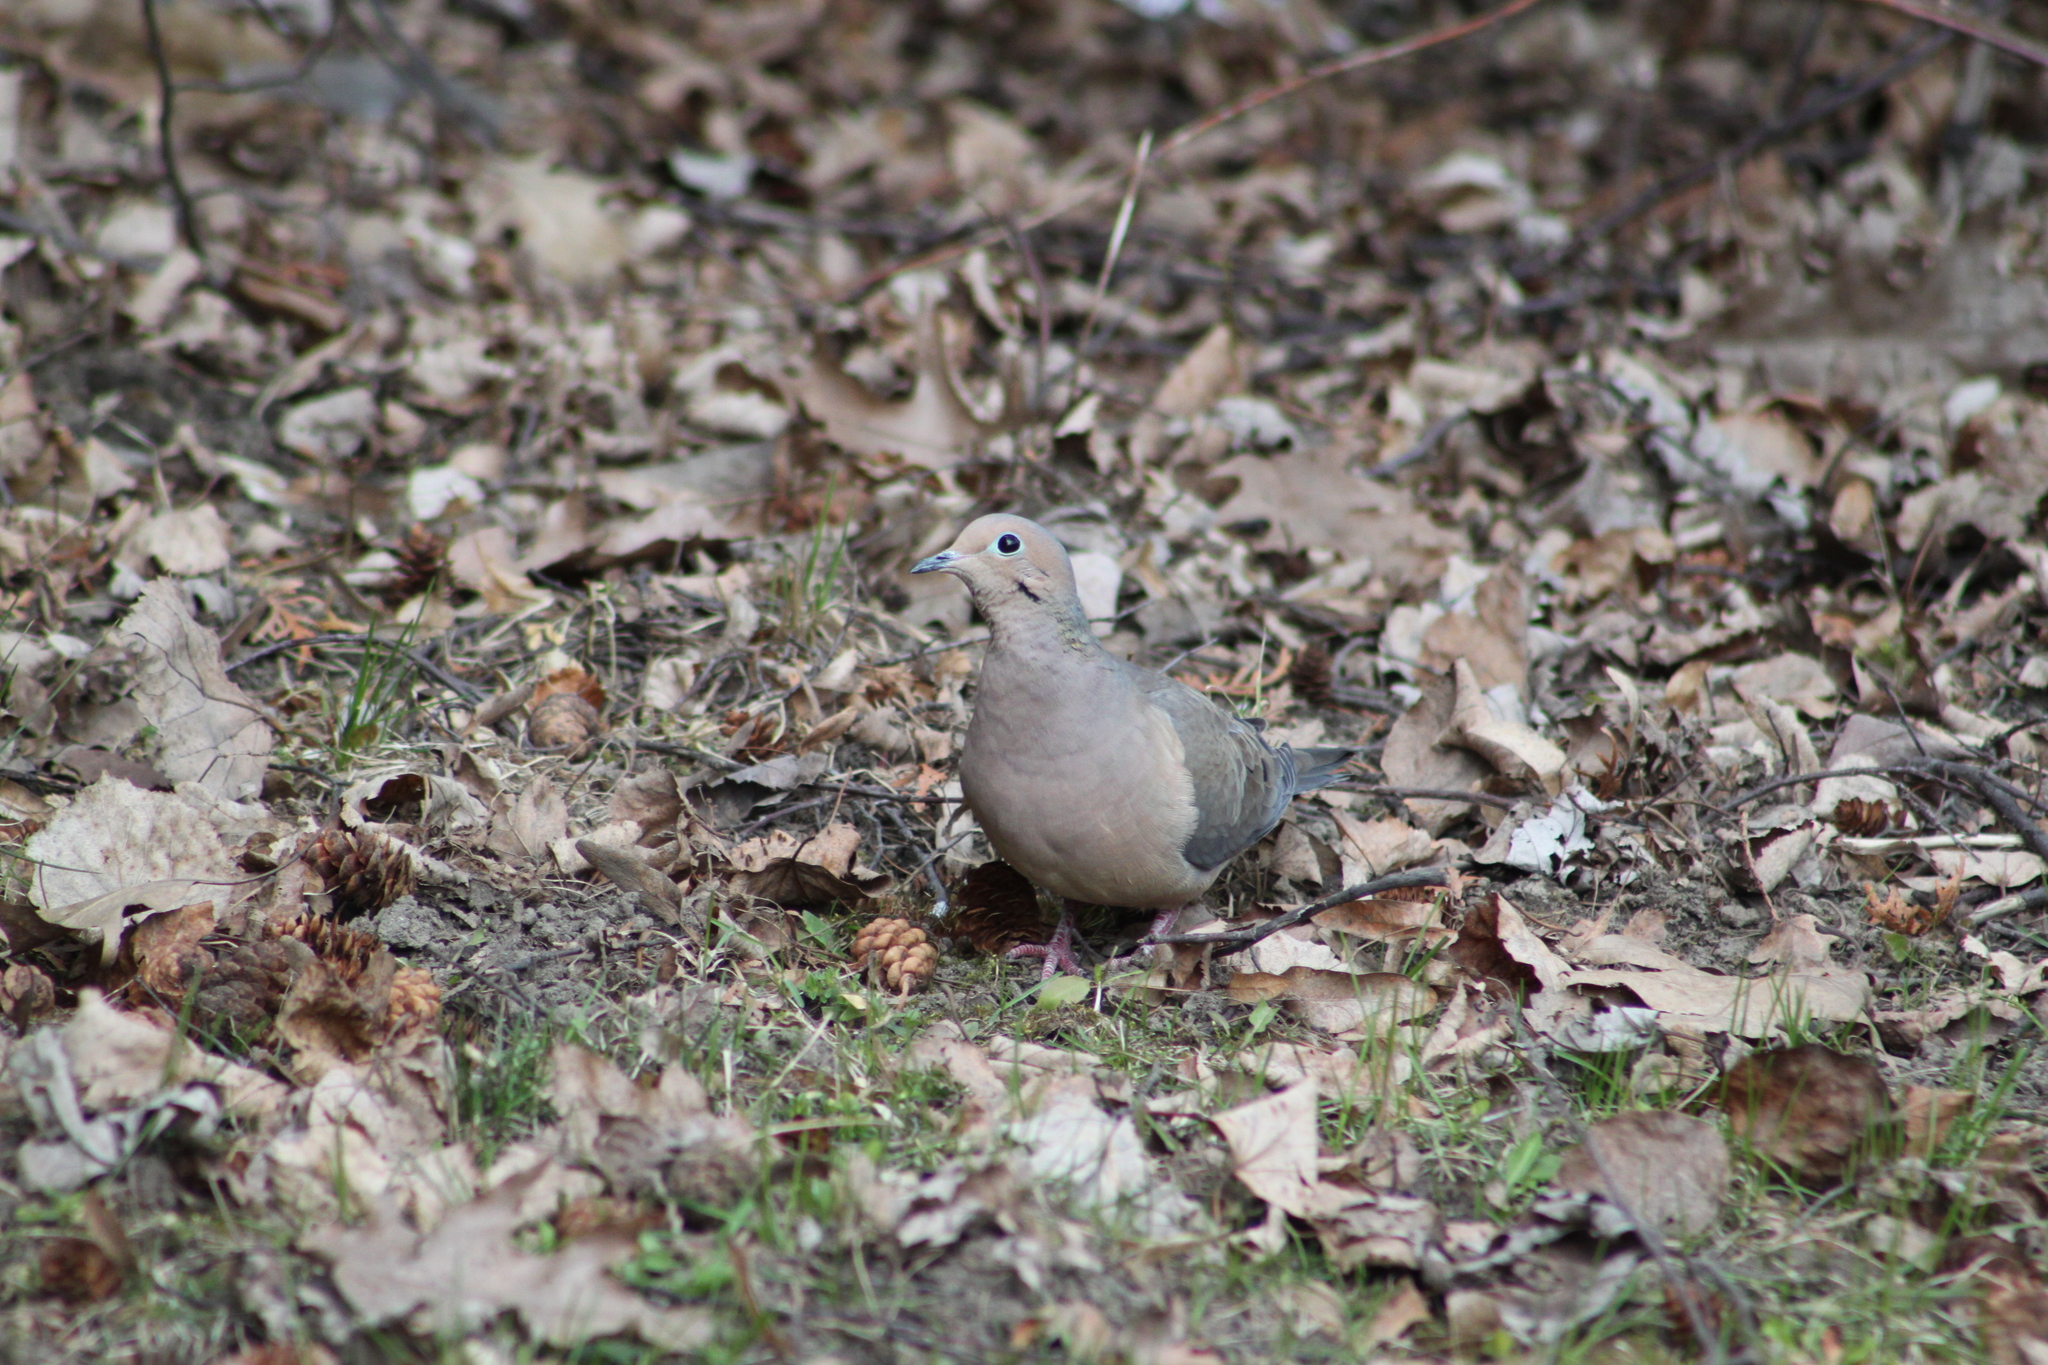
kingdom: Animalia
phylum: Chordata
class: Aves
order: Columbiformes
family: Columbidae
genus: Zenaida
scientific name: Zenaida macroura
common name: Mourning dove
